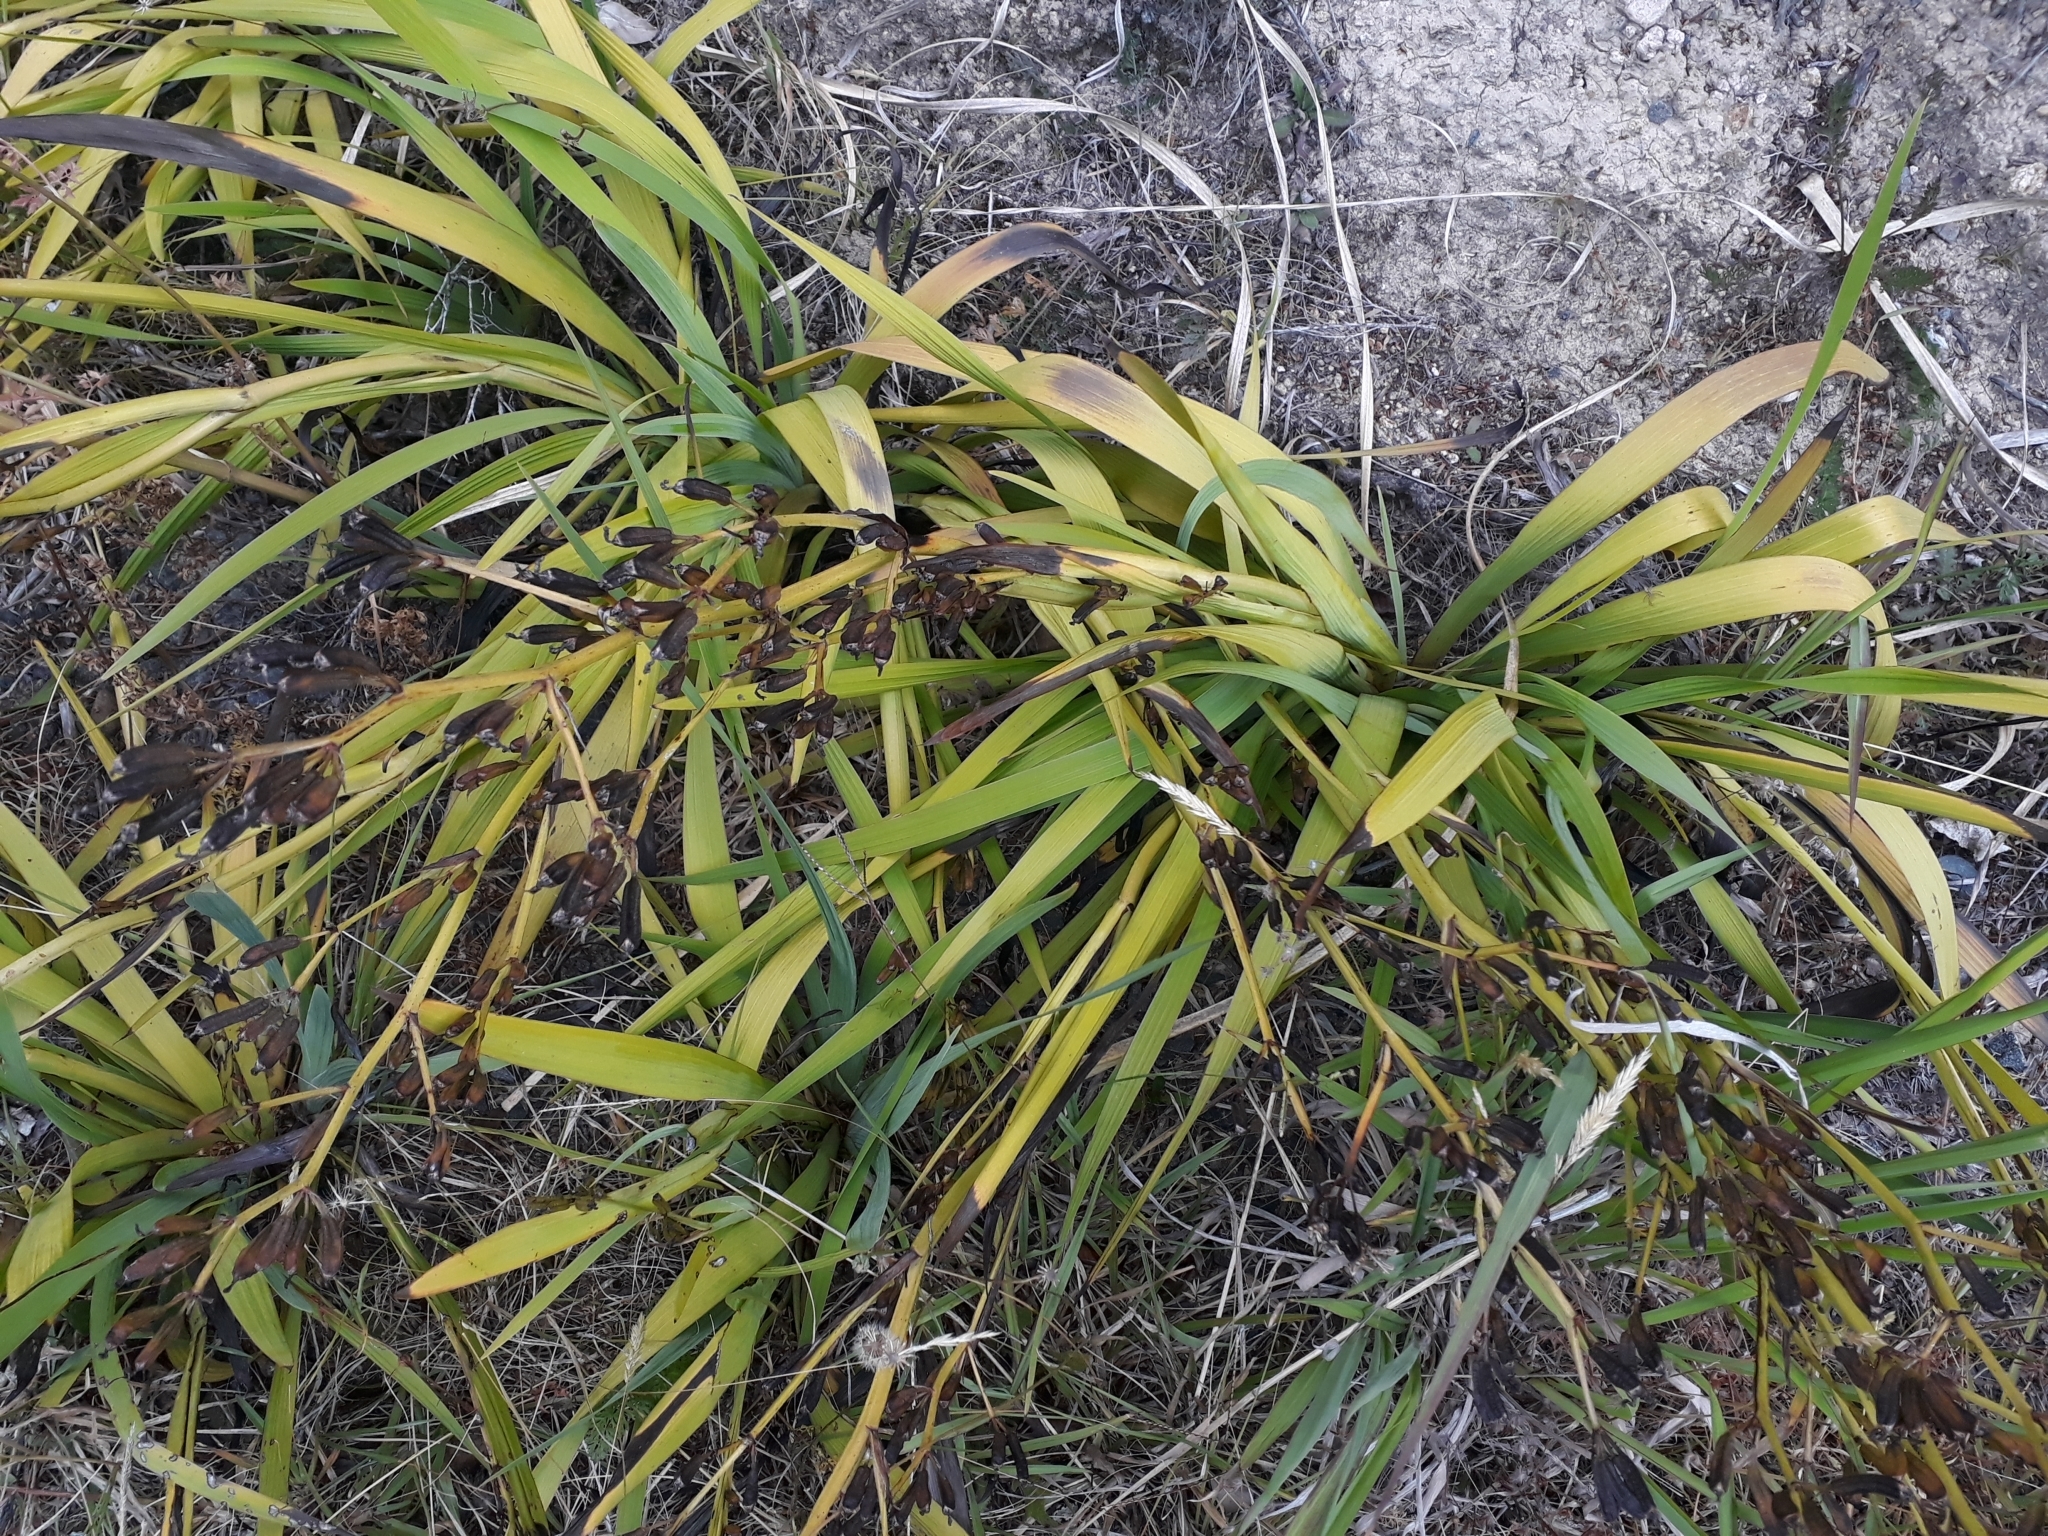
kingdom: Plantae
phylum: Tracheophyta
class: Liliopsida
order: Asparagales
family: Iridaceae
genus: Aristea
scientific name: Aristea ecklonii
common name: Blue corn-lily
